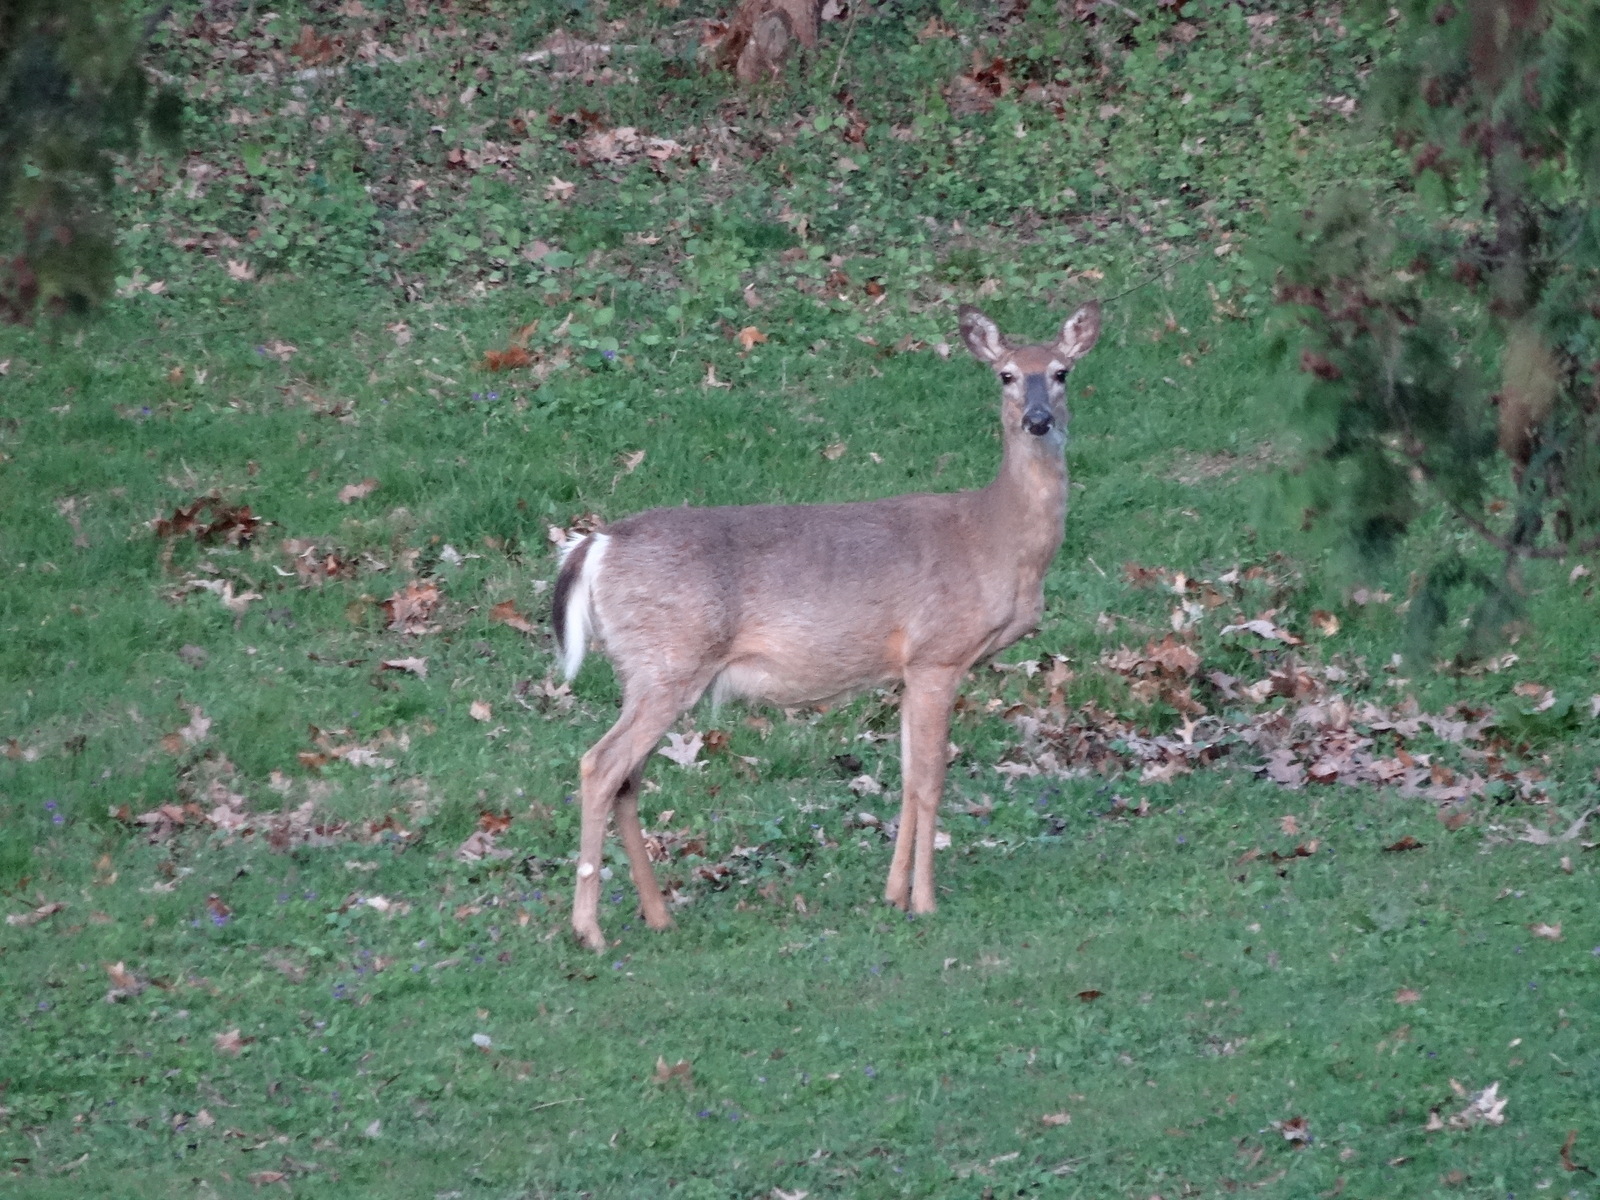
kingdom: Animalia
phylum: Chordata
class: Mammalia
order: Artiodactyla
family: Cervidae
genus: Odocoileus
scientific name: Odocoileus virginianus
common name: White-tailed deer
